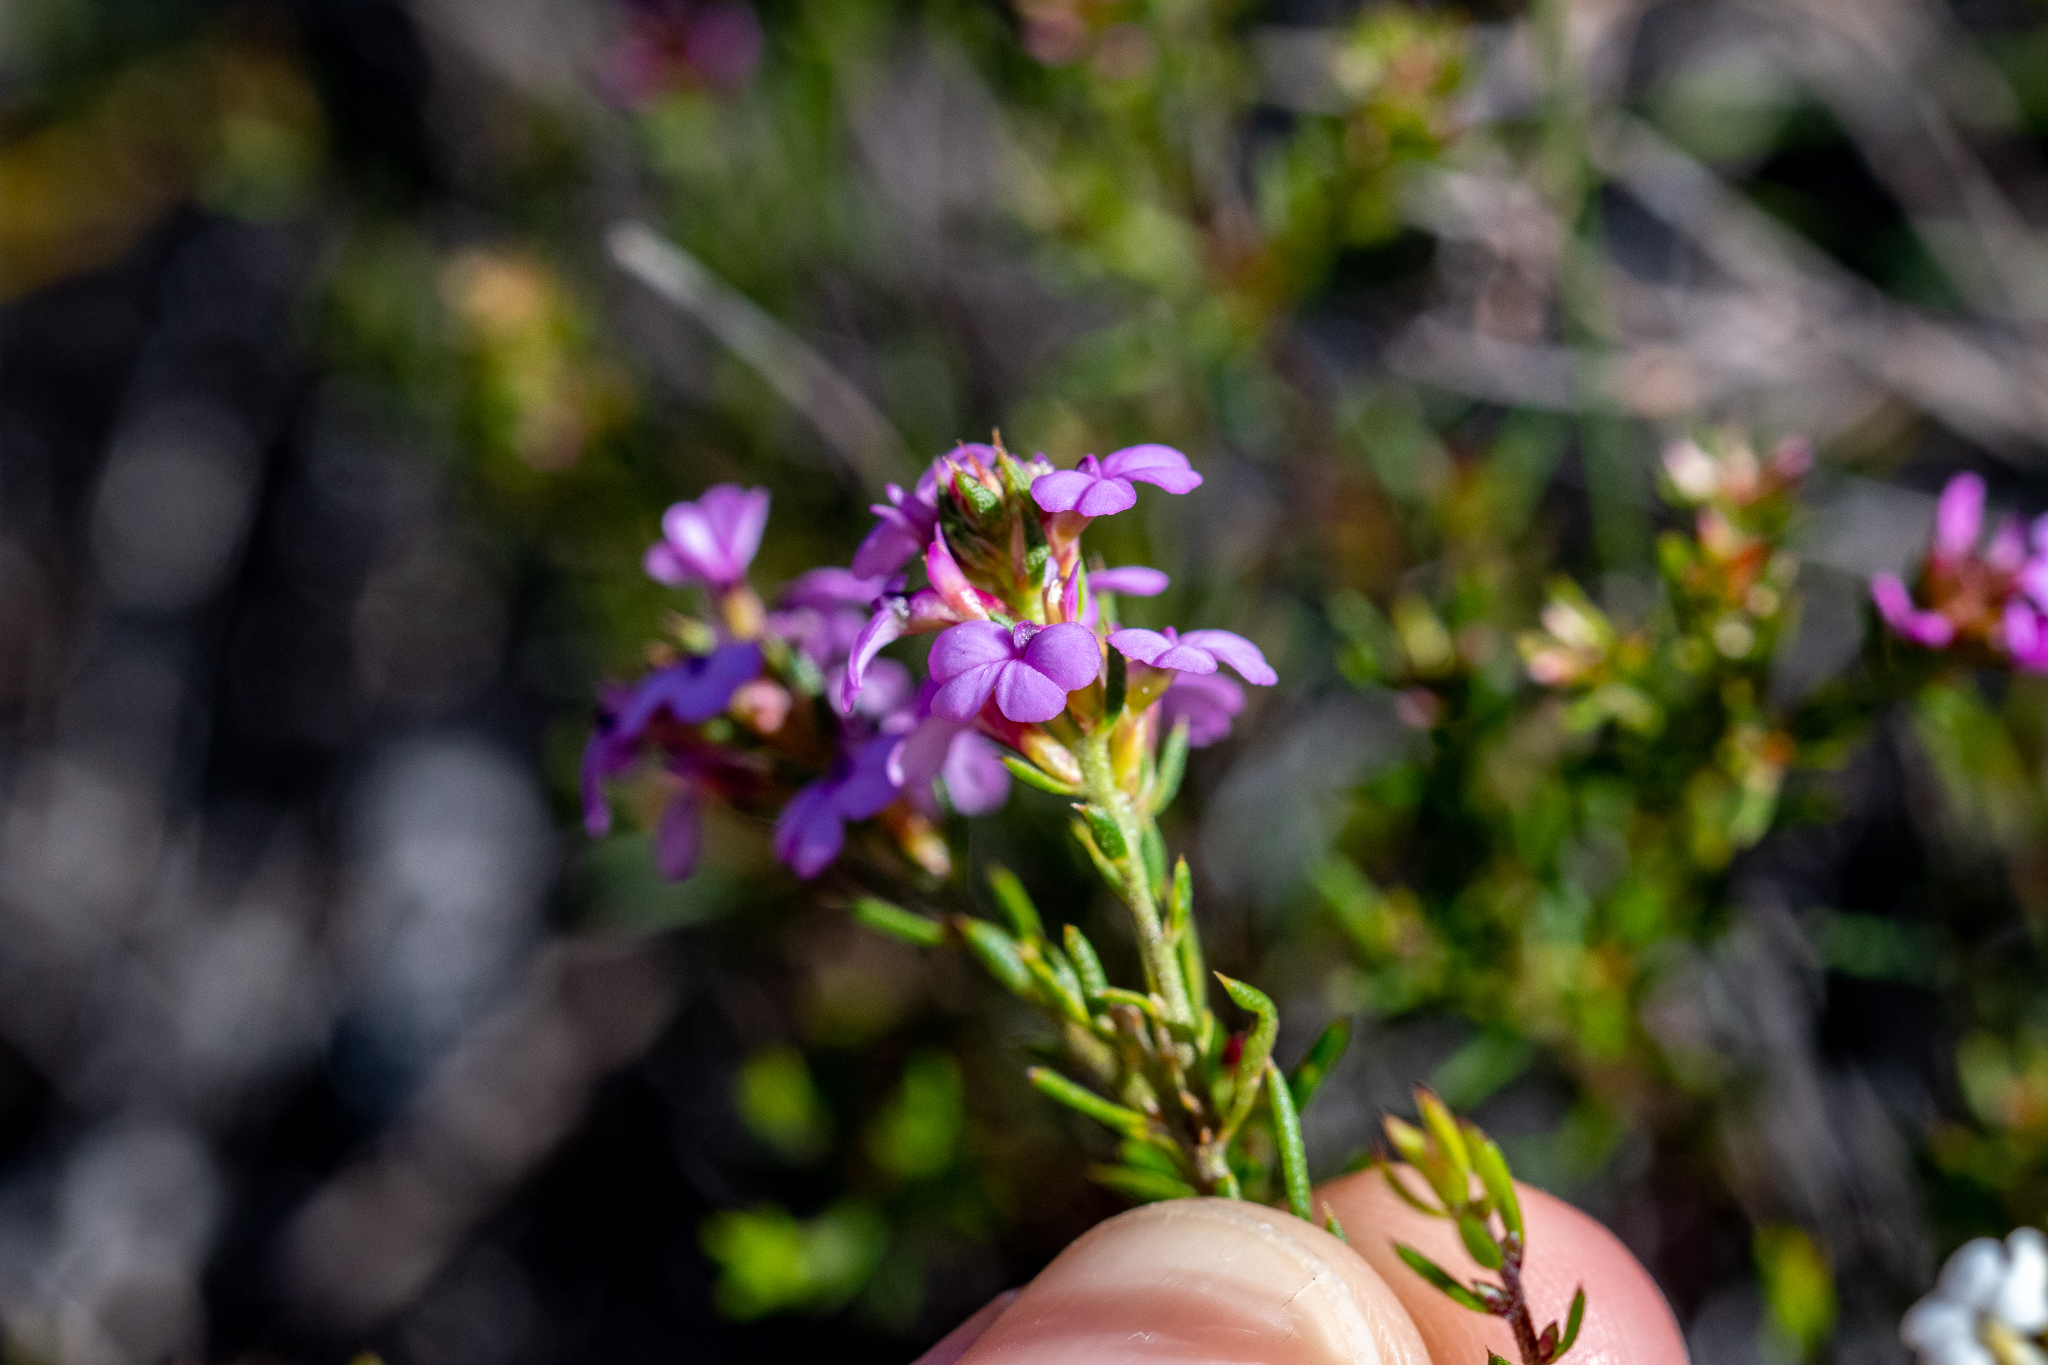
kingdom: Plantae
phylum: Tracheophyta
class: Magnoliopsida
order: Fabales
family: Polygalaceae
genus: Muraltia
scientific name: Muraltia satureioides
